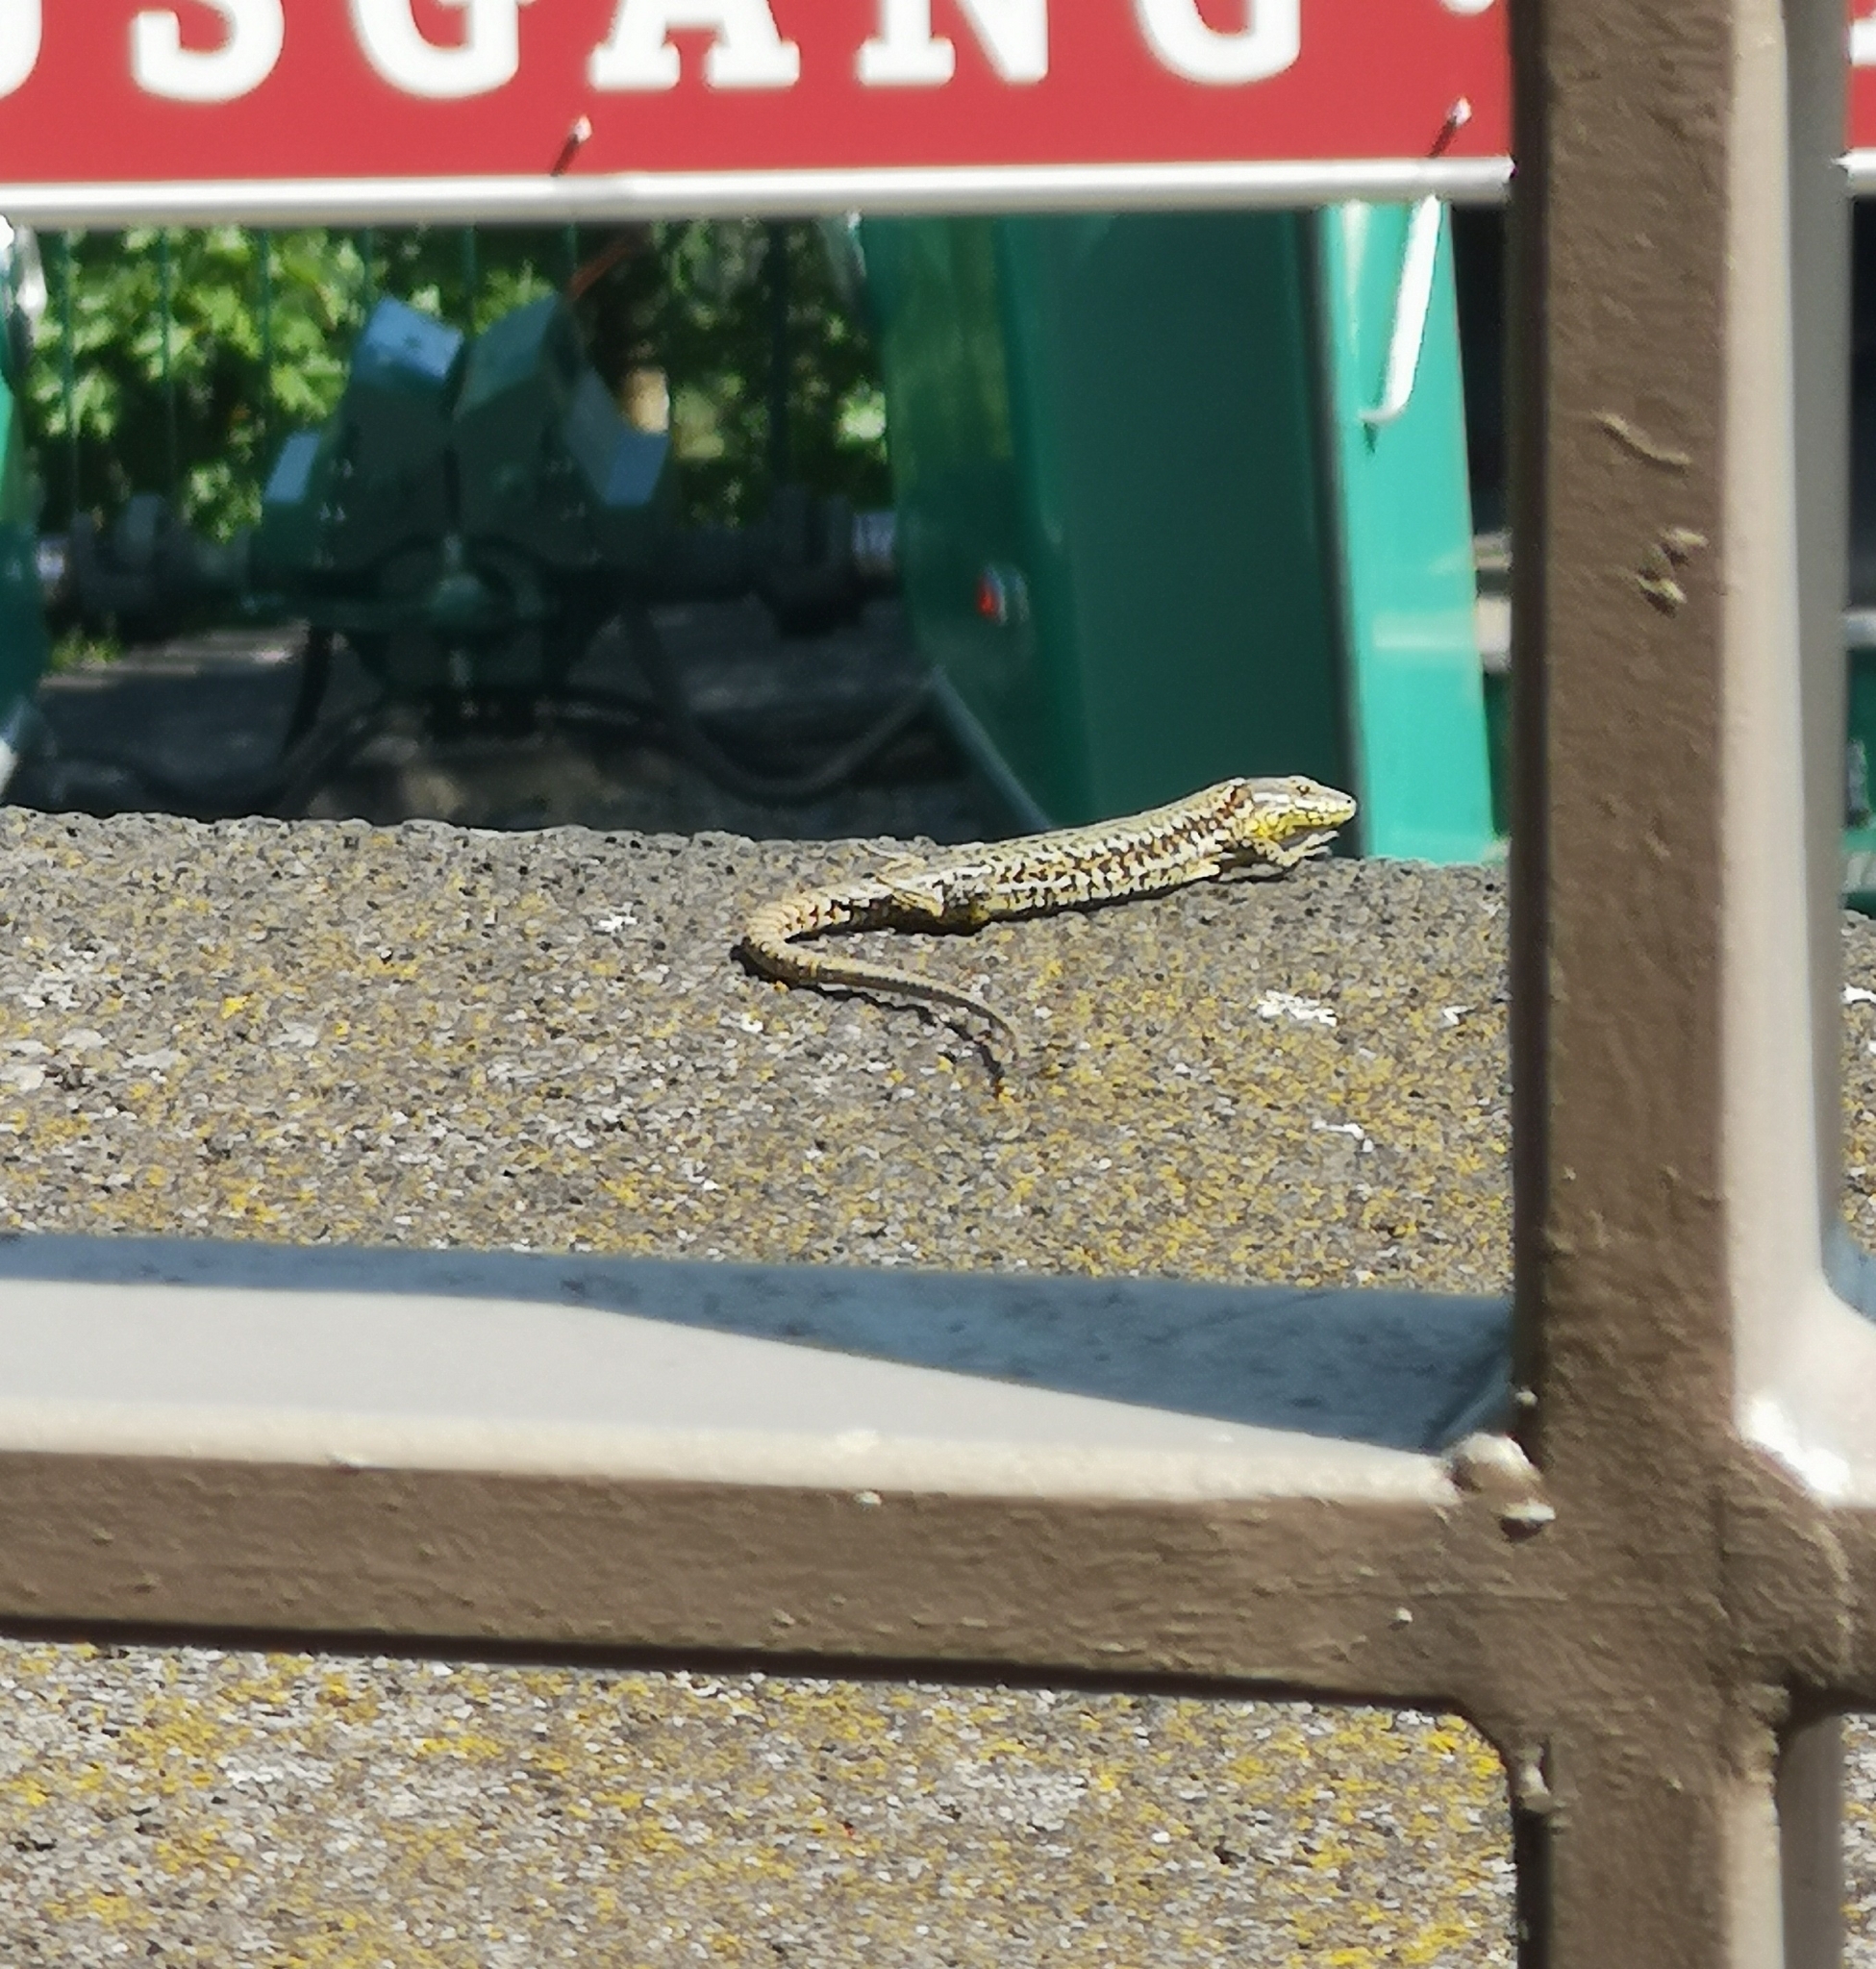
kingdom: Animalia
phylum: Chordata
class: Squamata
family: Lacertidae
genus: Podarcis
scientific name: Podarcis muralis
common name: Common wall lizard
